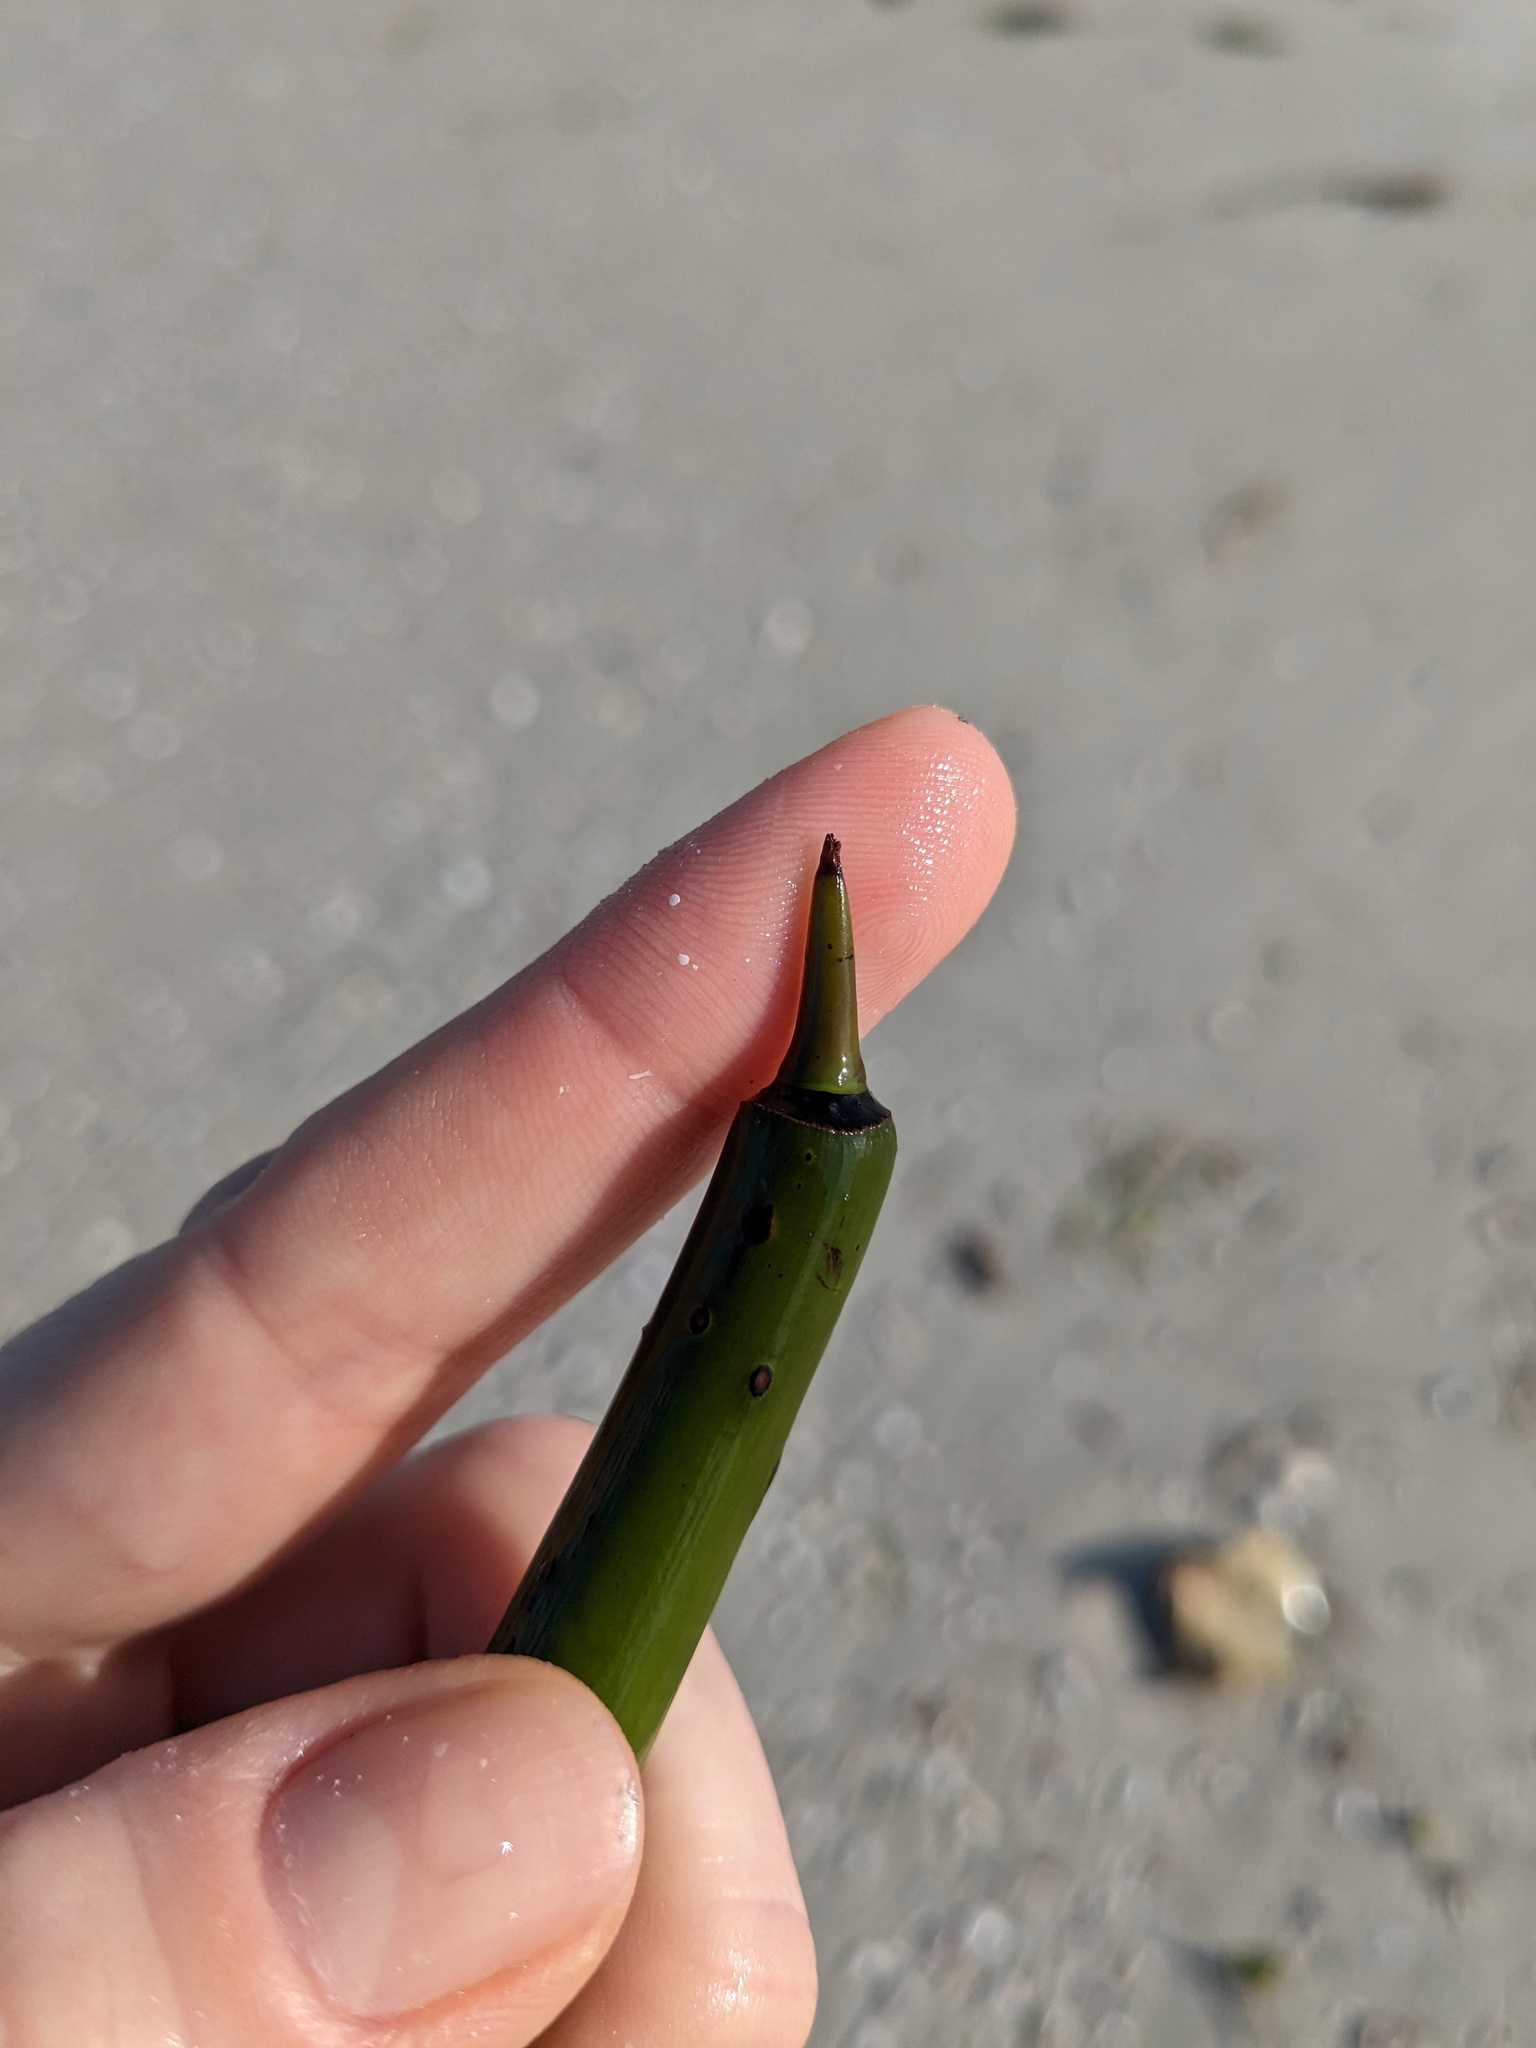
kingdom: Plantae
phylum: Tracheophyta
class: Magnoliopsida
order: Malpighiales
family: Rhizophoraceae
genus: Rhizophora
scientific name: Rhizophora mangle
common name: Red mangrove
